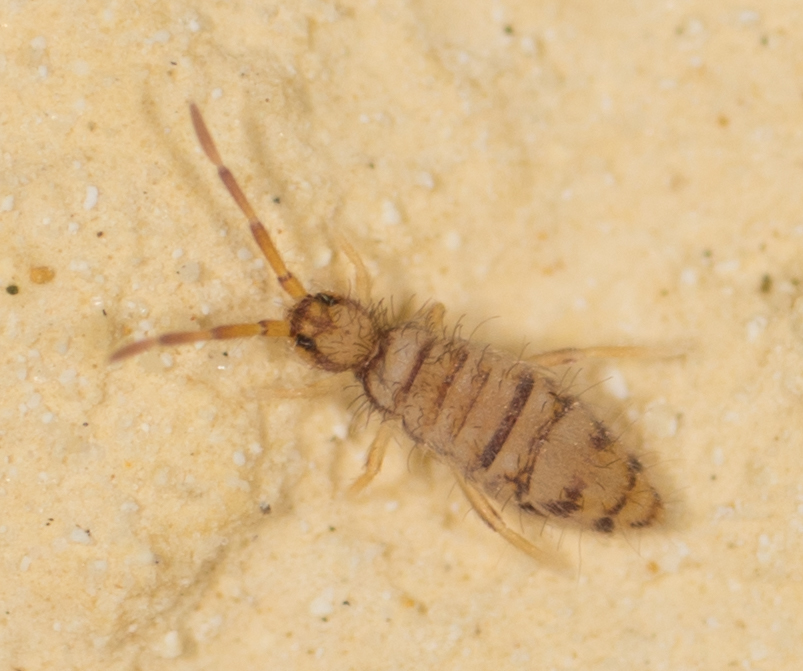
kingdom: Animalia
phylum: Arthropoda
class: Collembola
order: Entomobryomorpha
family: Entomobryidae
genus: Entomobrya
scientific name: Entomobrya atrocincta
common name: Springtail
